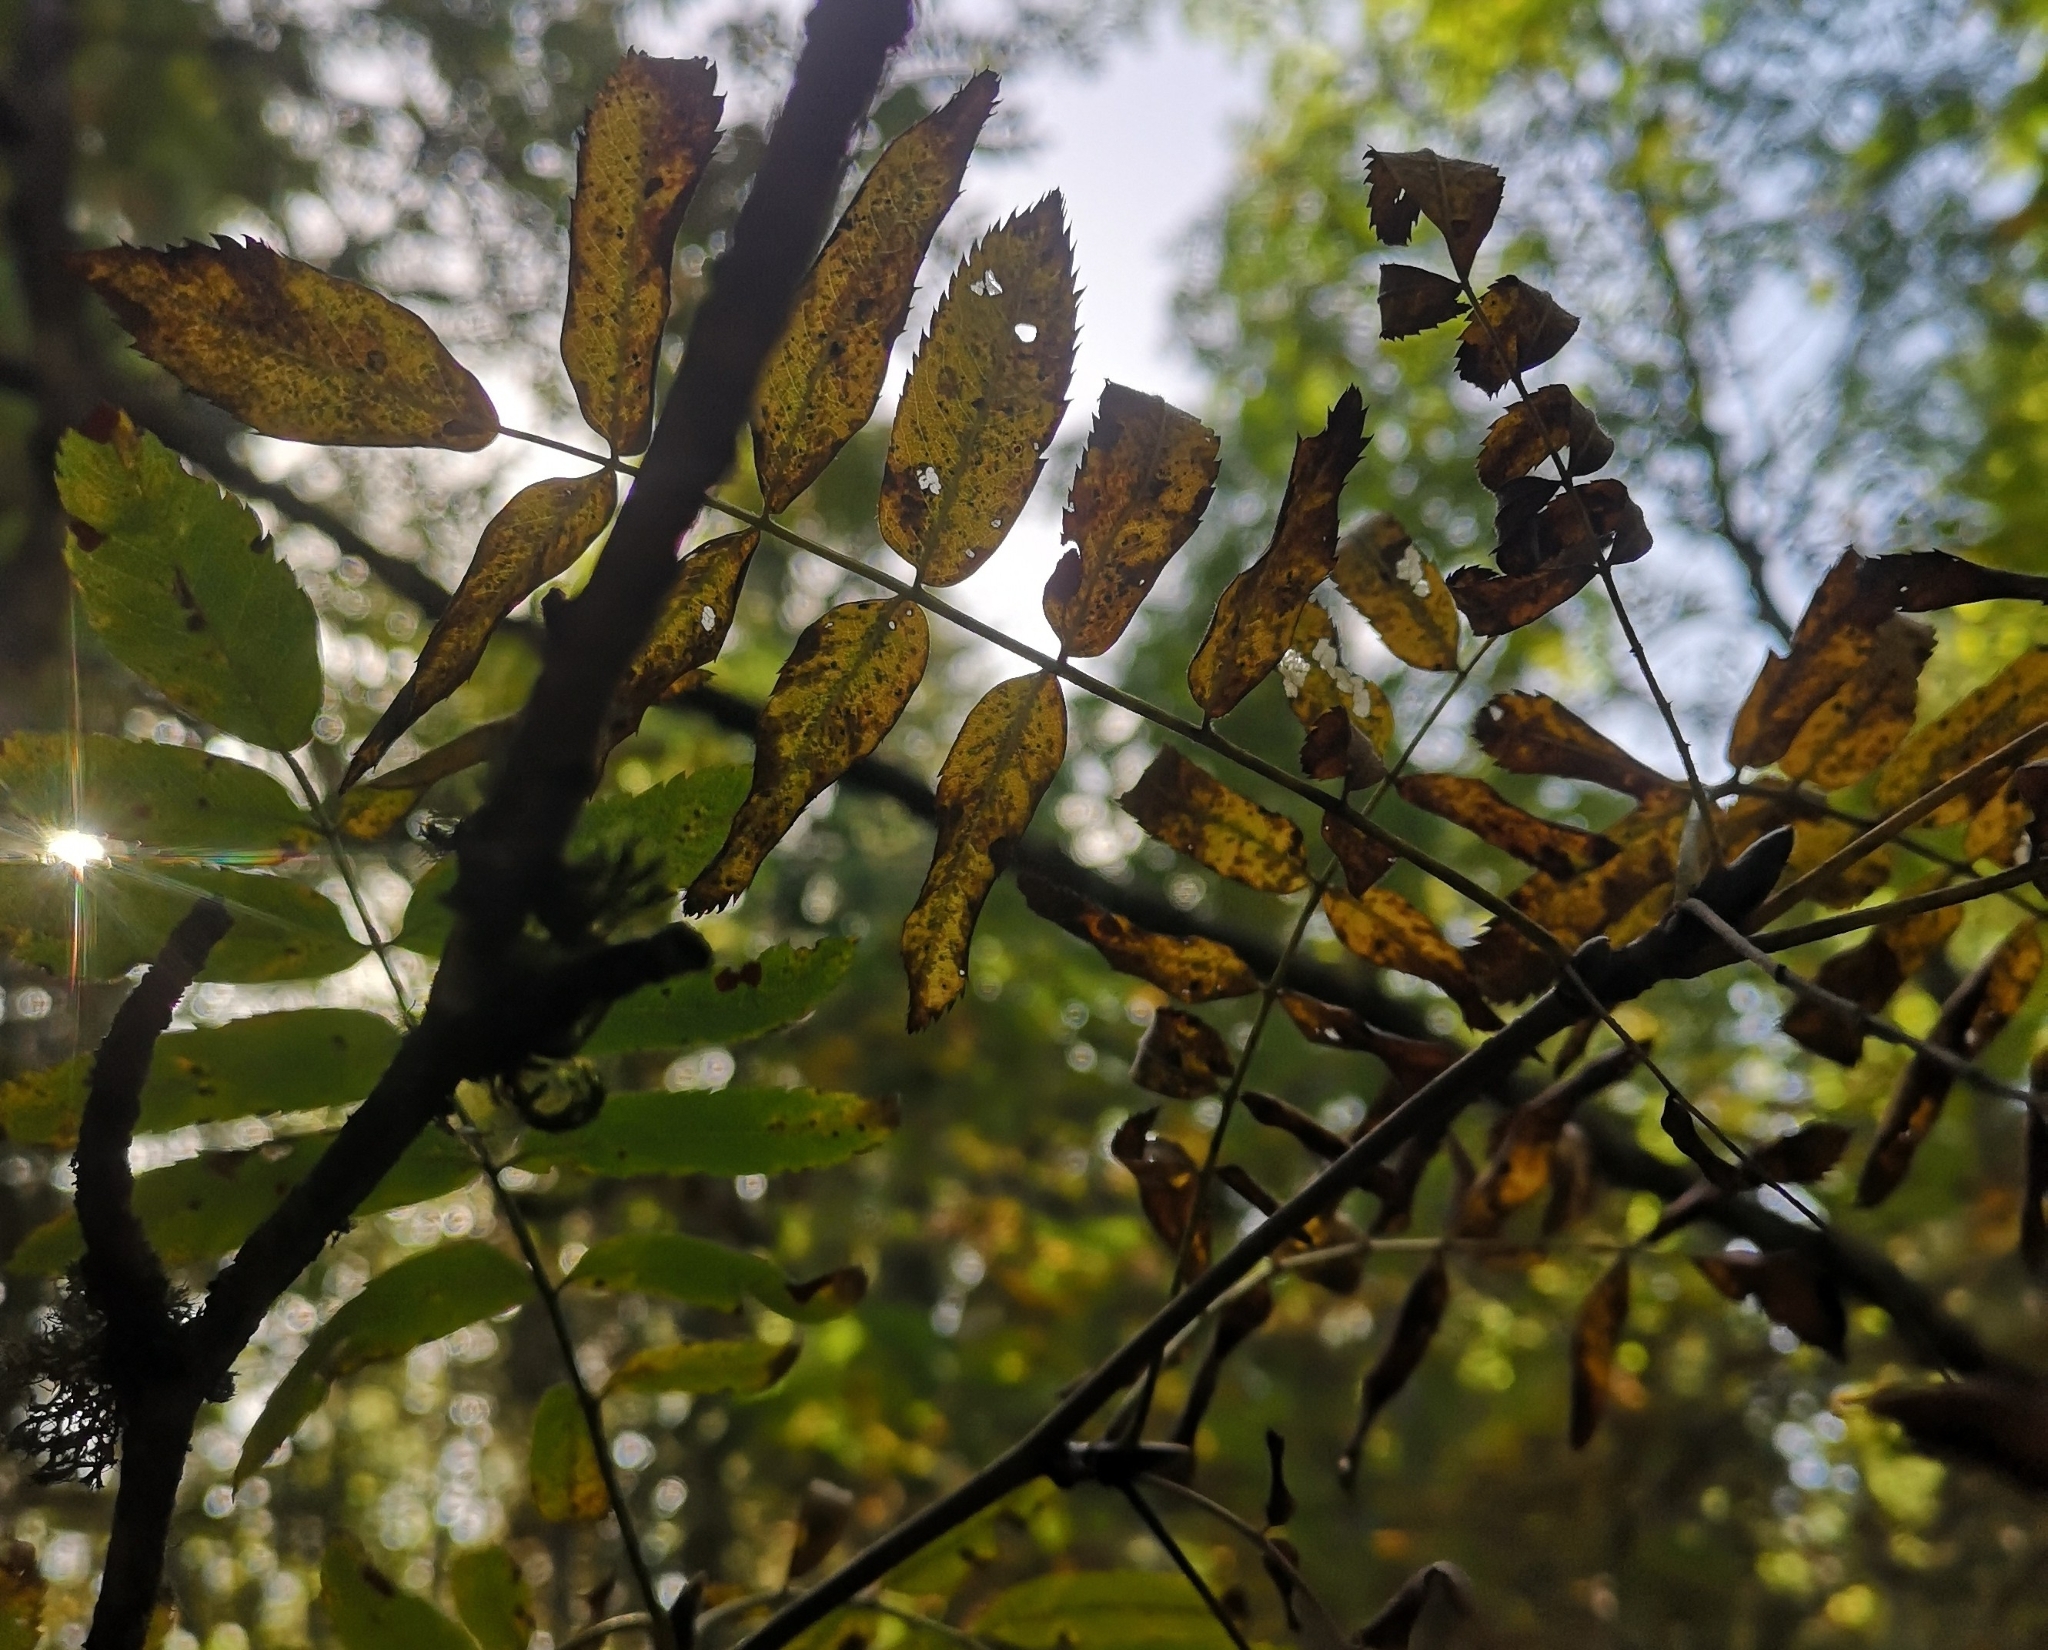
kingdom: Plantae
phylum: Tracheophyta
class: Magnoliopsida
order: Rosales
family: Rosaceae
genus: Sorbus
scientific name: Sorbus aucuparia
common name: Rowan
